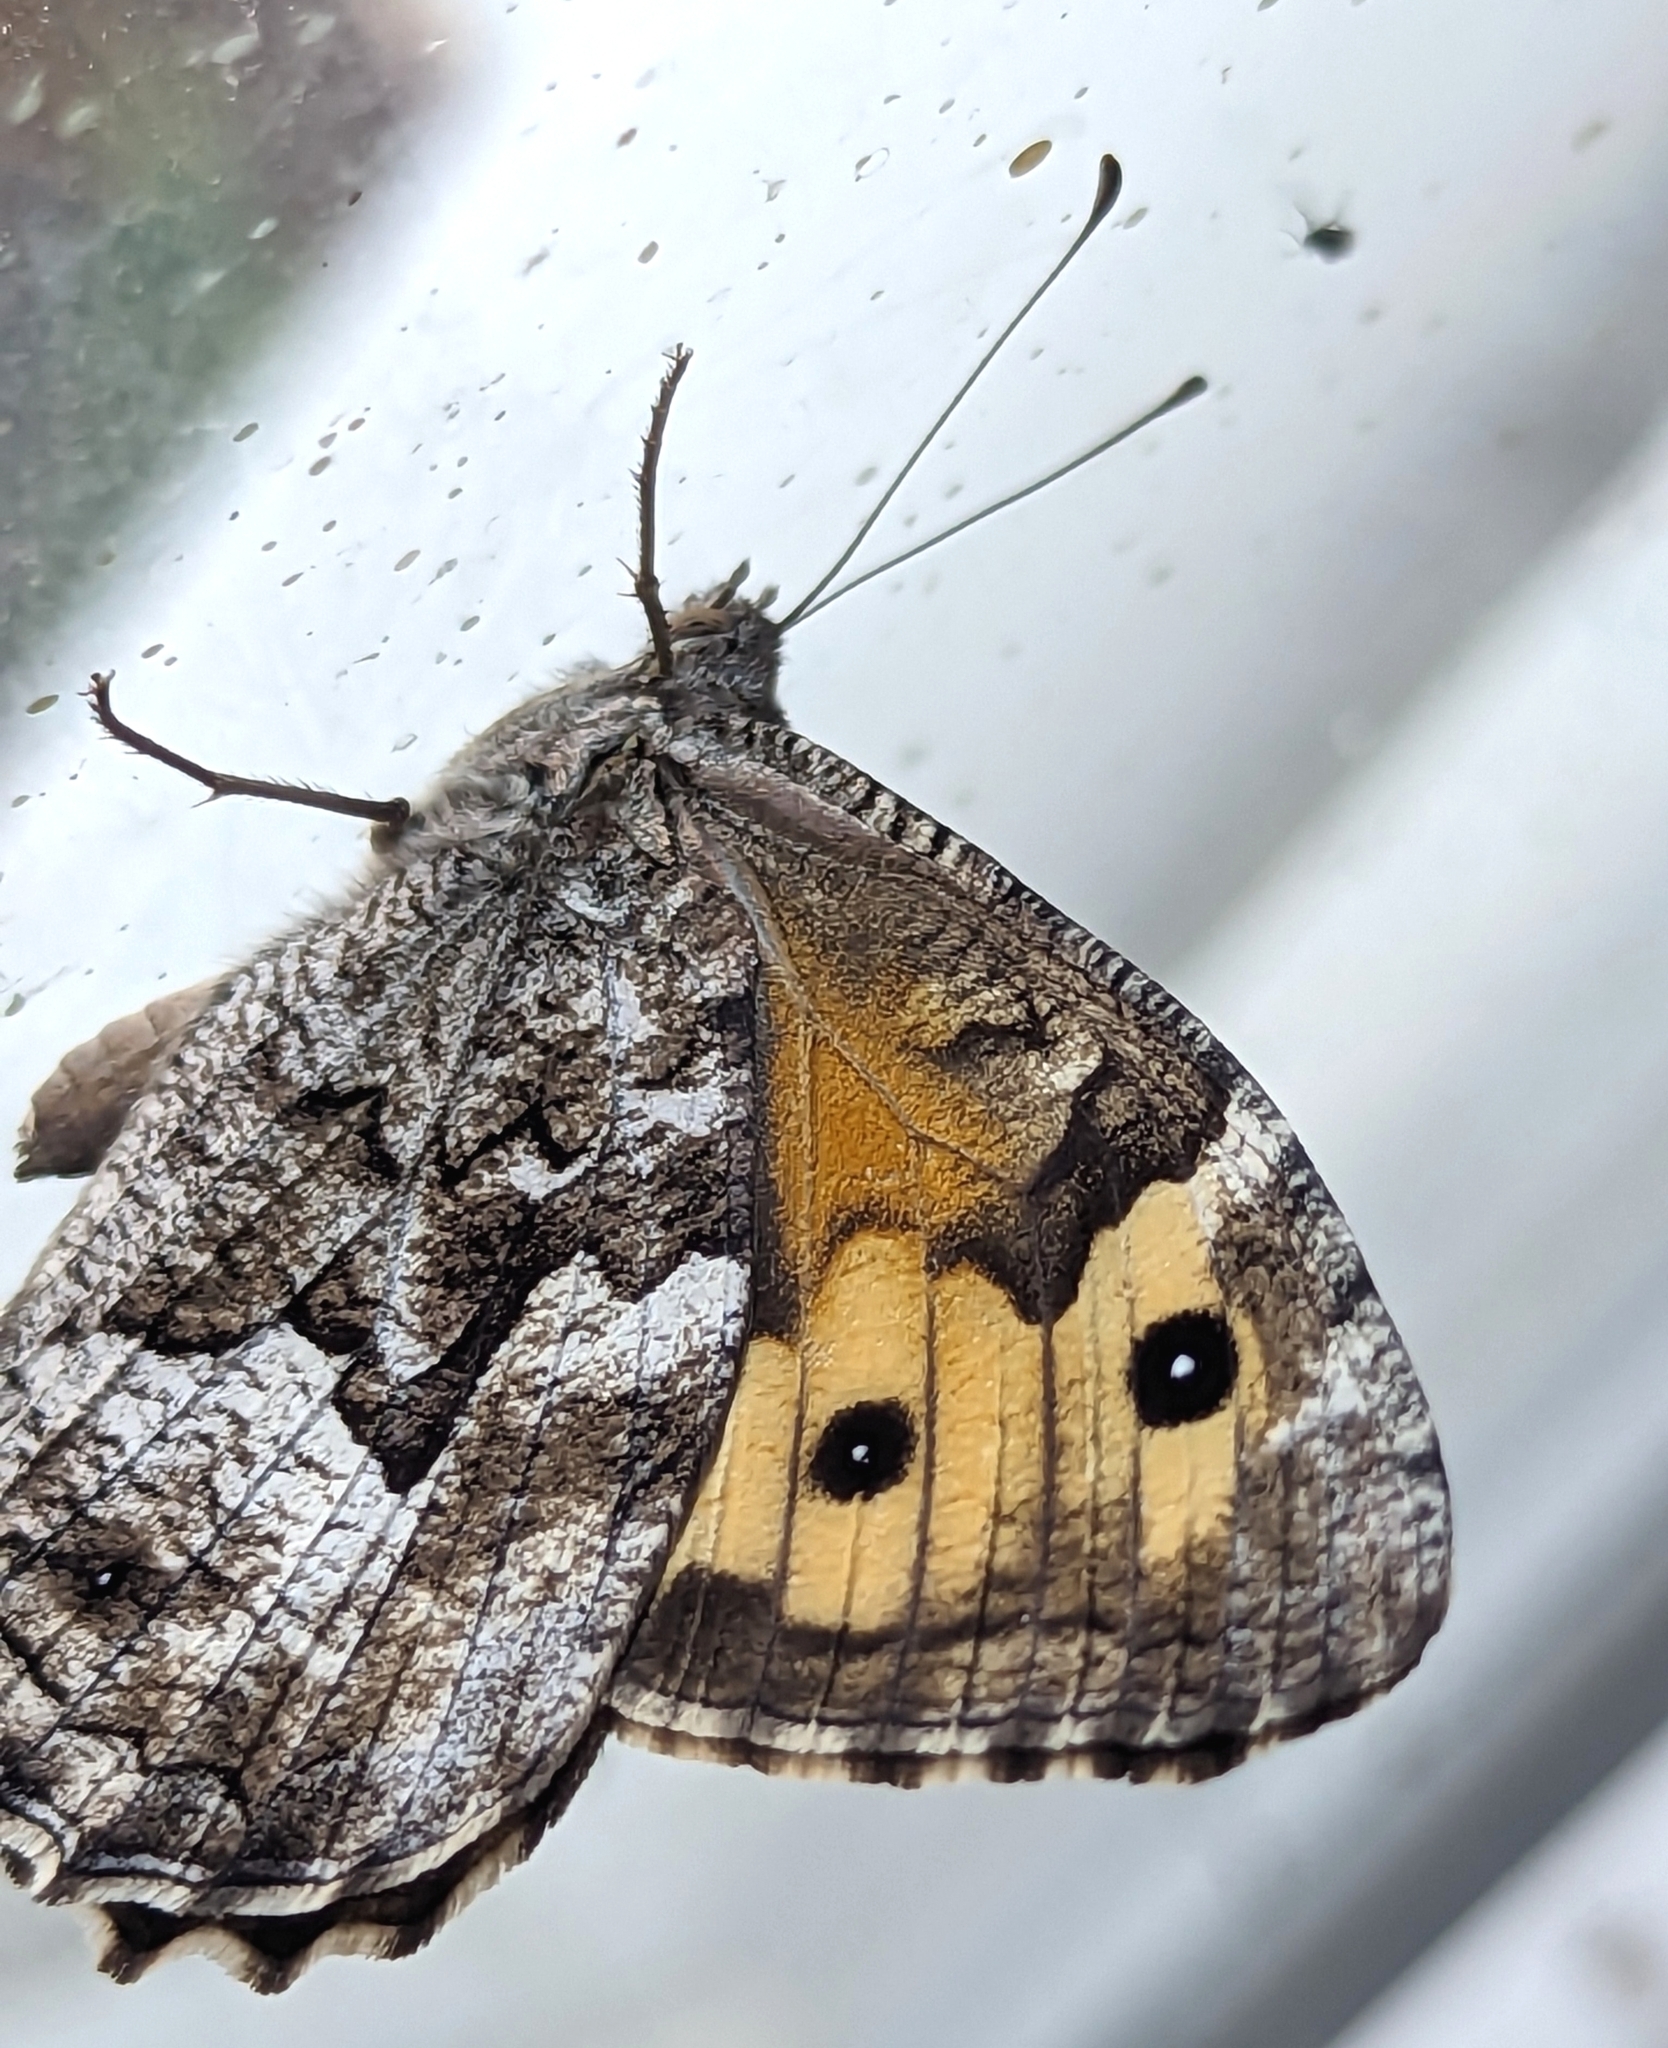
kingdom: Animalia
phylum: Arthropoda
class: Insecta
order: Lepidoptera
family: Nymphalidae
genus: Hipparchia
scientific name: Hipparchia algirica
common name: Mountain grayling
